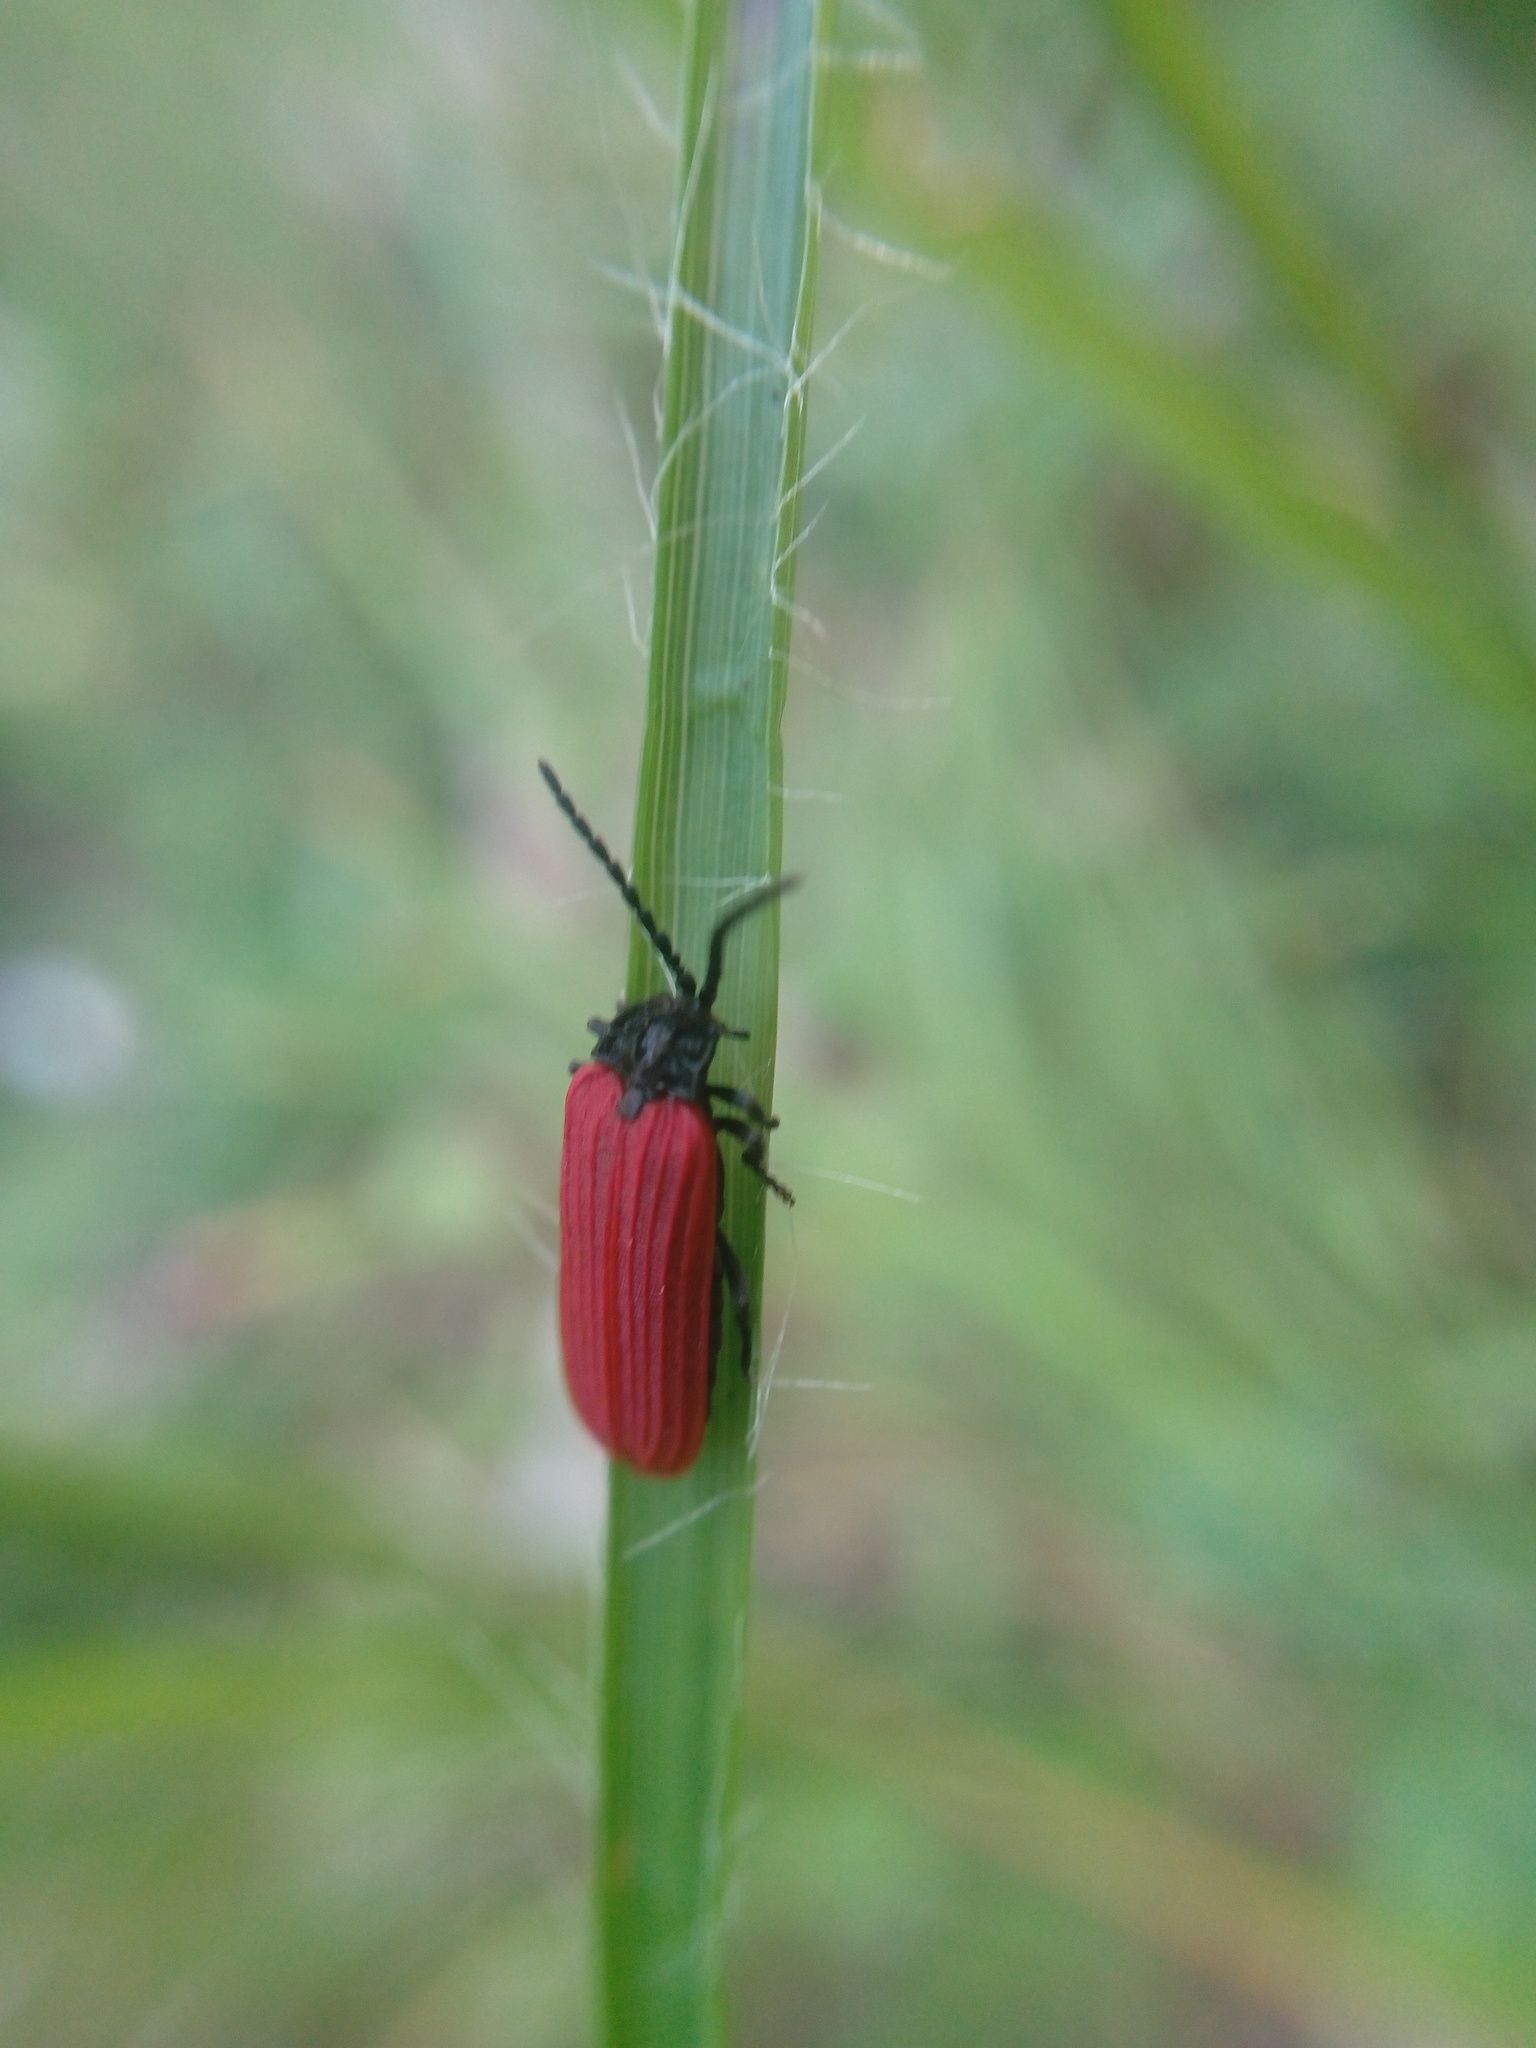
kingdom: Animalia
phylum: Arthropoda
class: Insecta
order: Coleoptera
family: Lycidae
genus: Pyropterus
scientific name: Pyropterus nigroruber
